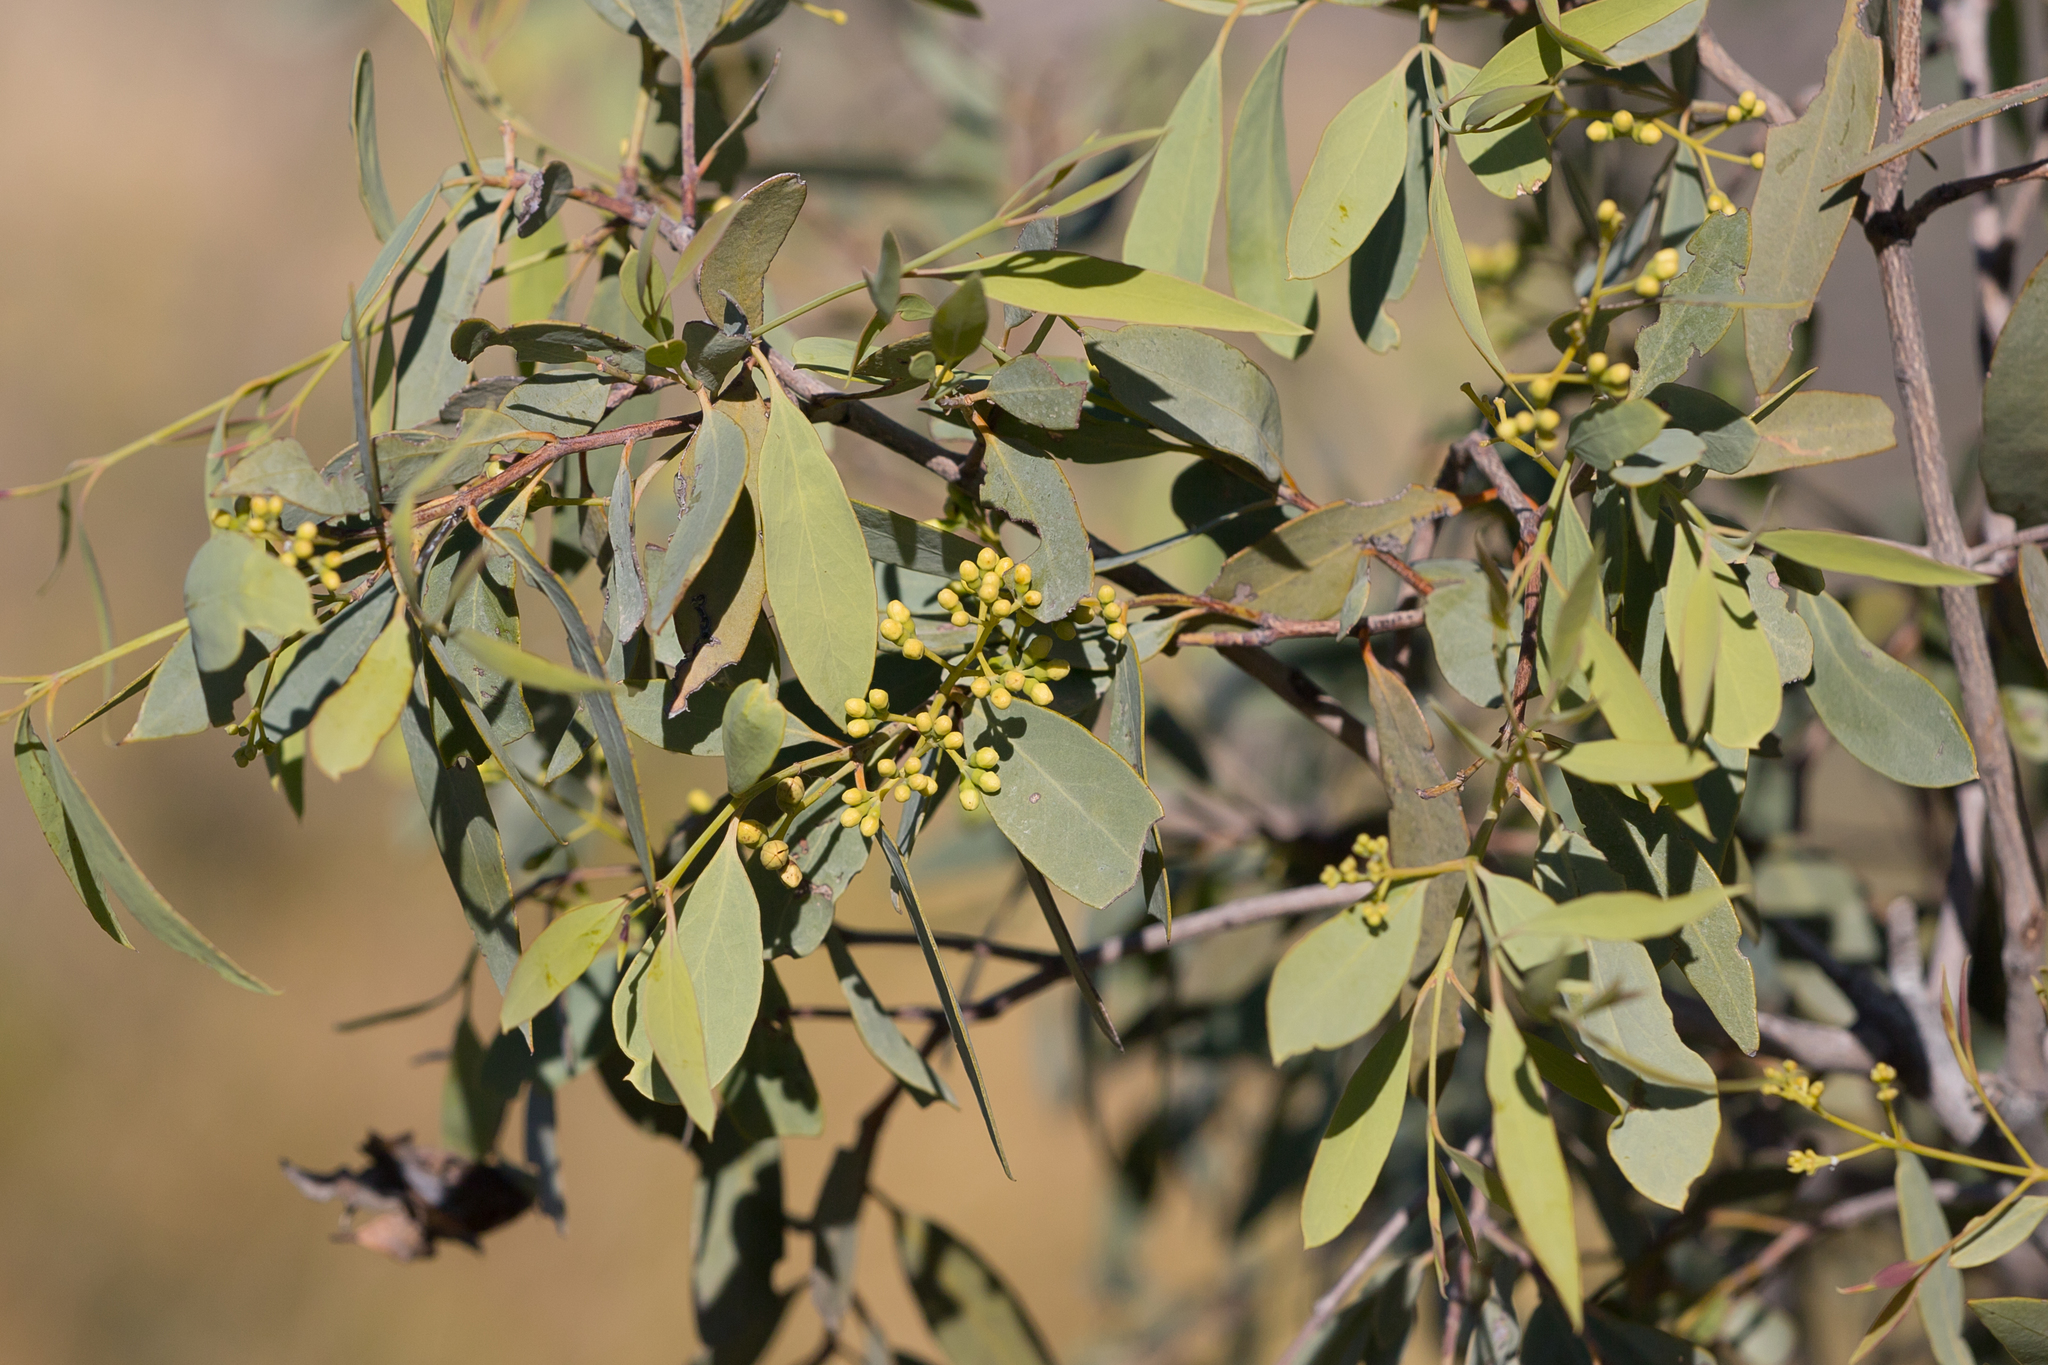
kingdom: Plantae
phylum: Tracheophyta
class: Magnoliopsida
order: Santalales
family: Santalaceae
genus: Santalum
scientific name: Santalum lanceolatum
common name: Ankwerley
